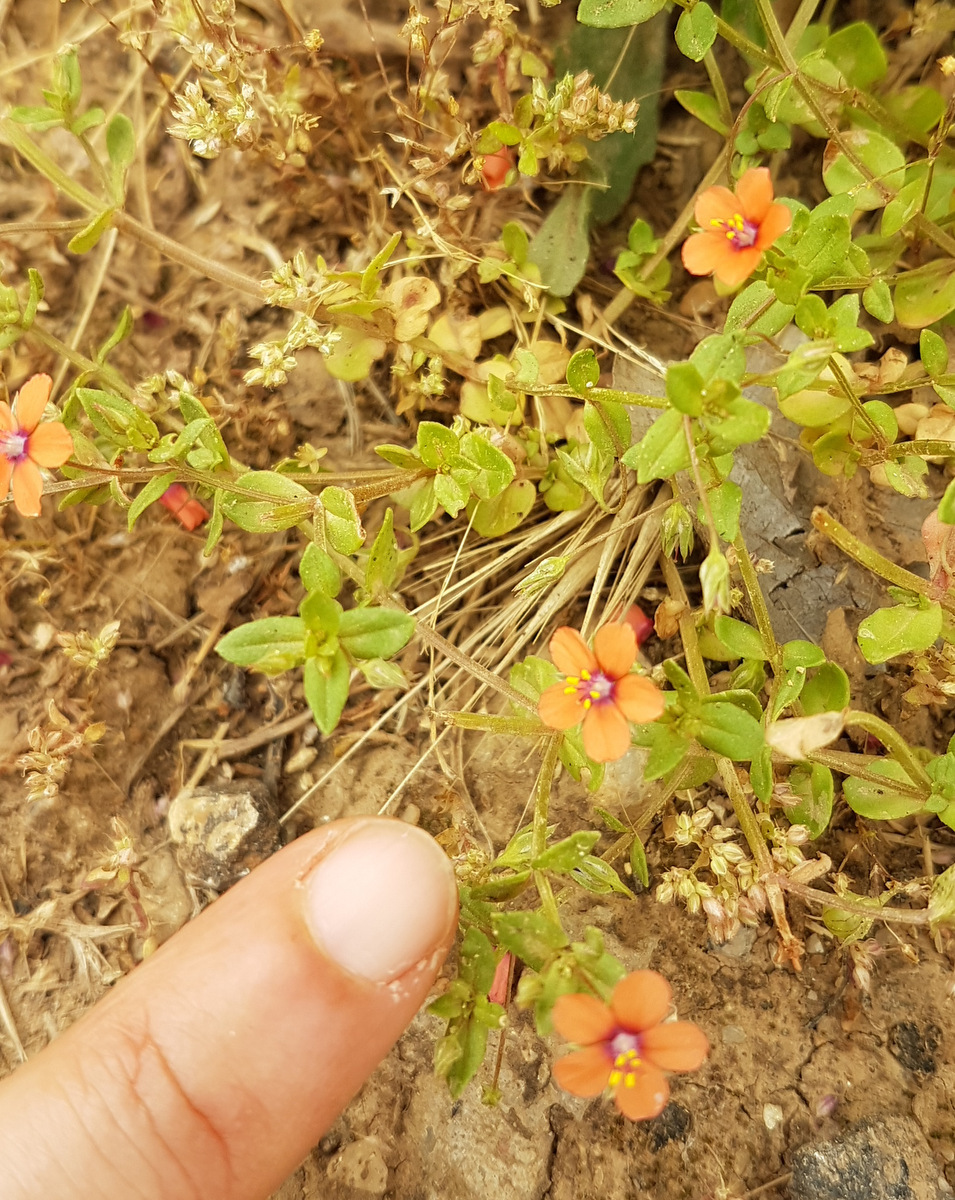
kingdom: Plantae
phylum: Tracheophyta
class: Magnoliopsida
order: Ericales
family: Primulaceae
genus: Lysimachia
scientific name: Lysimachia arvensis
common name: Scarlet pimpernel
